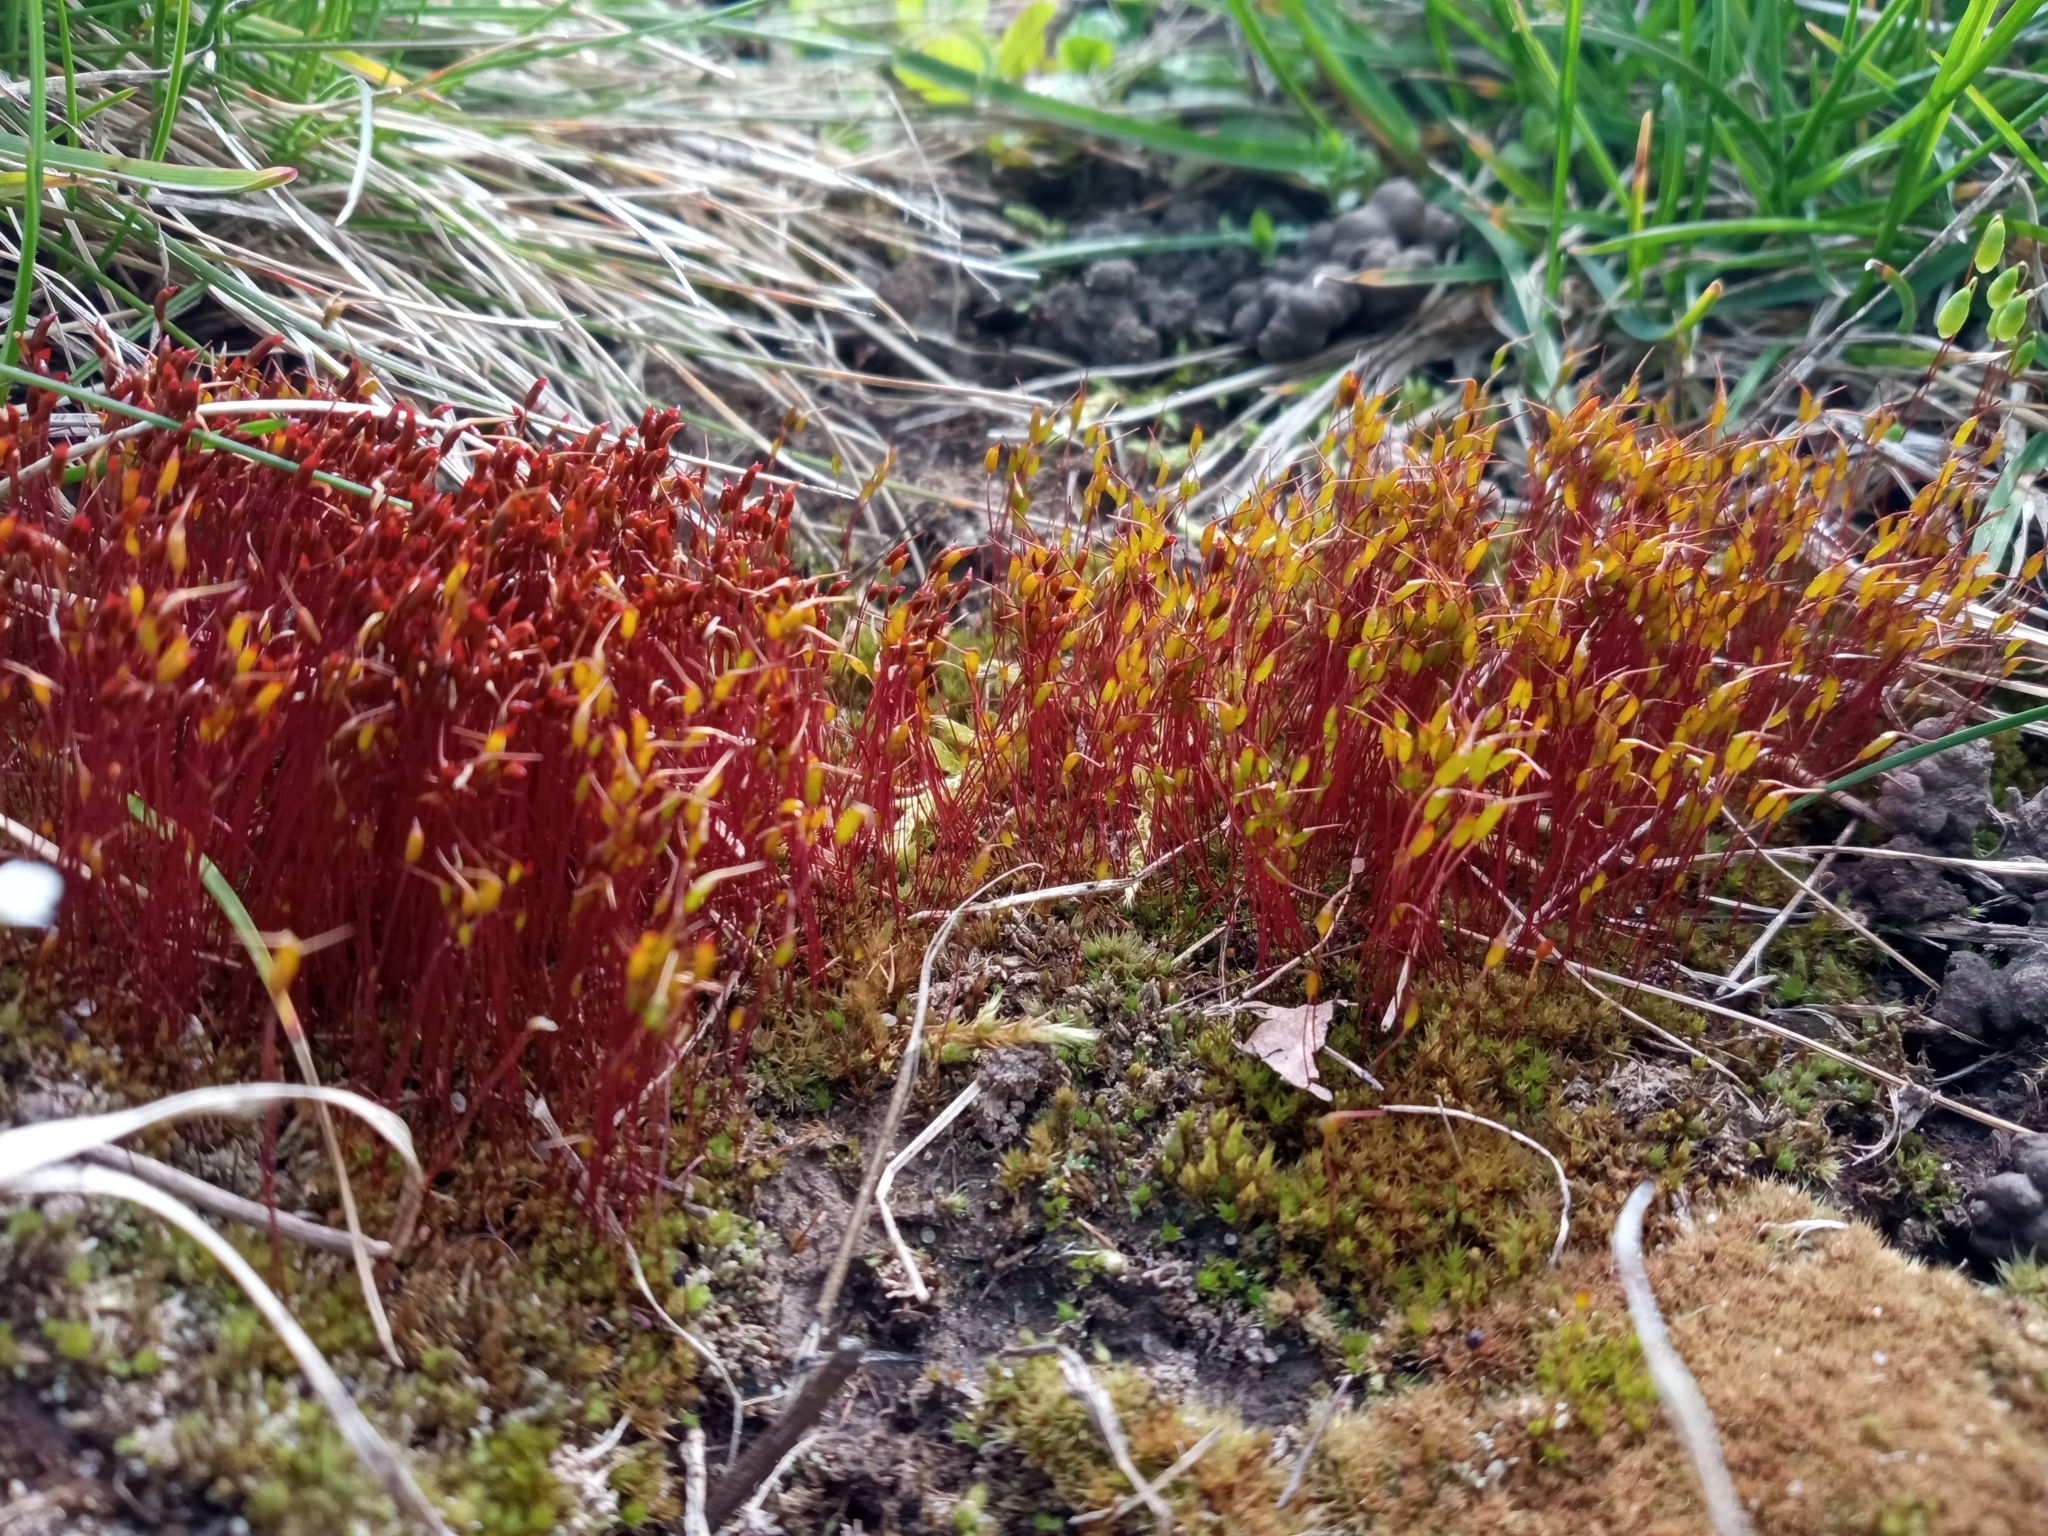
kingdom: Plantae
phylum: Bryophyta
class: Bryopsida
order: Dicranales
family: Ditrichaceae
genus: Ceratodon
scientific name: Ceratodon purpureus
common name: Redshank
